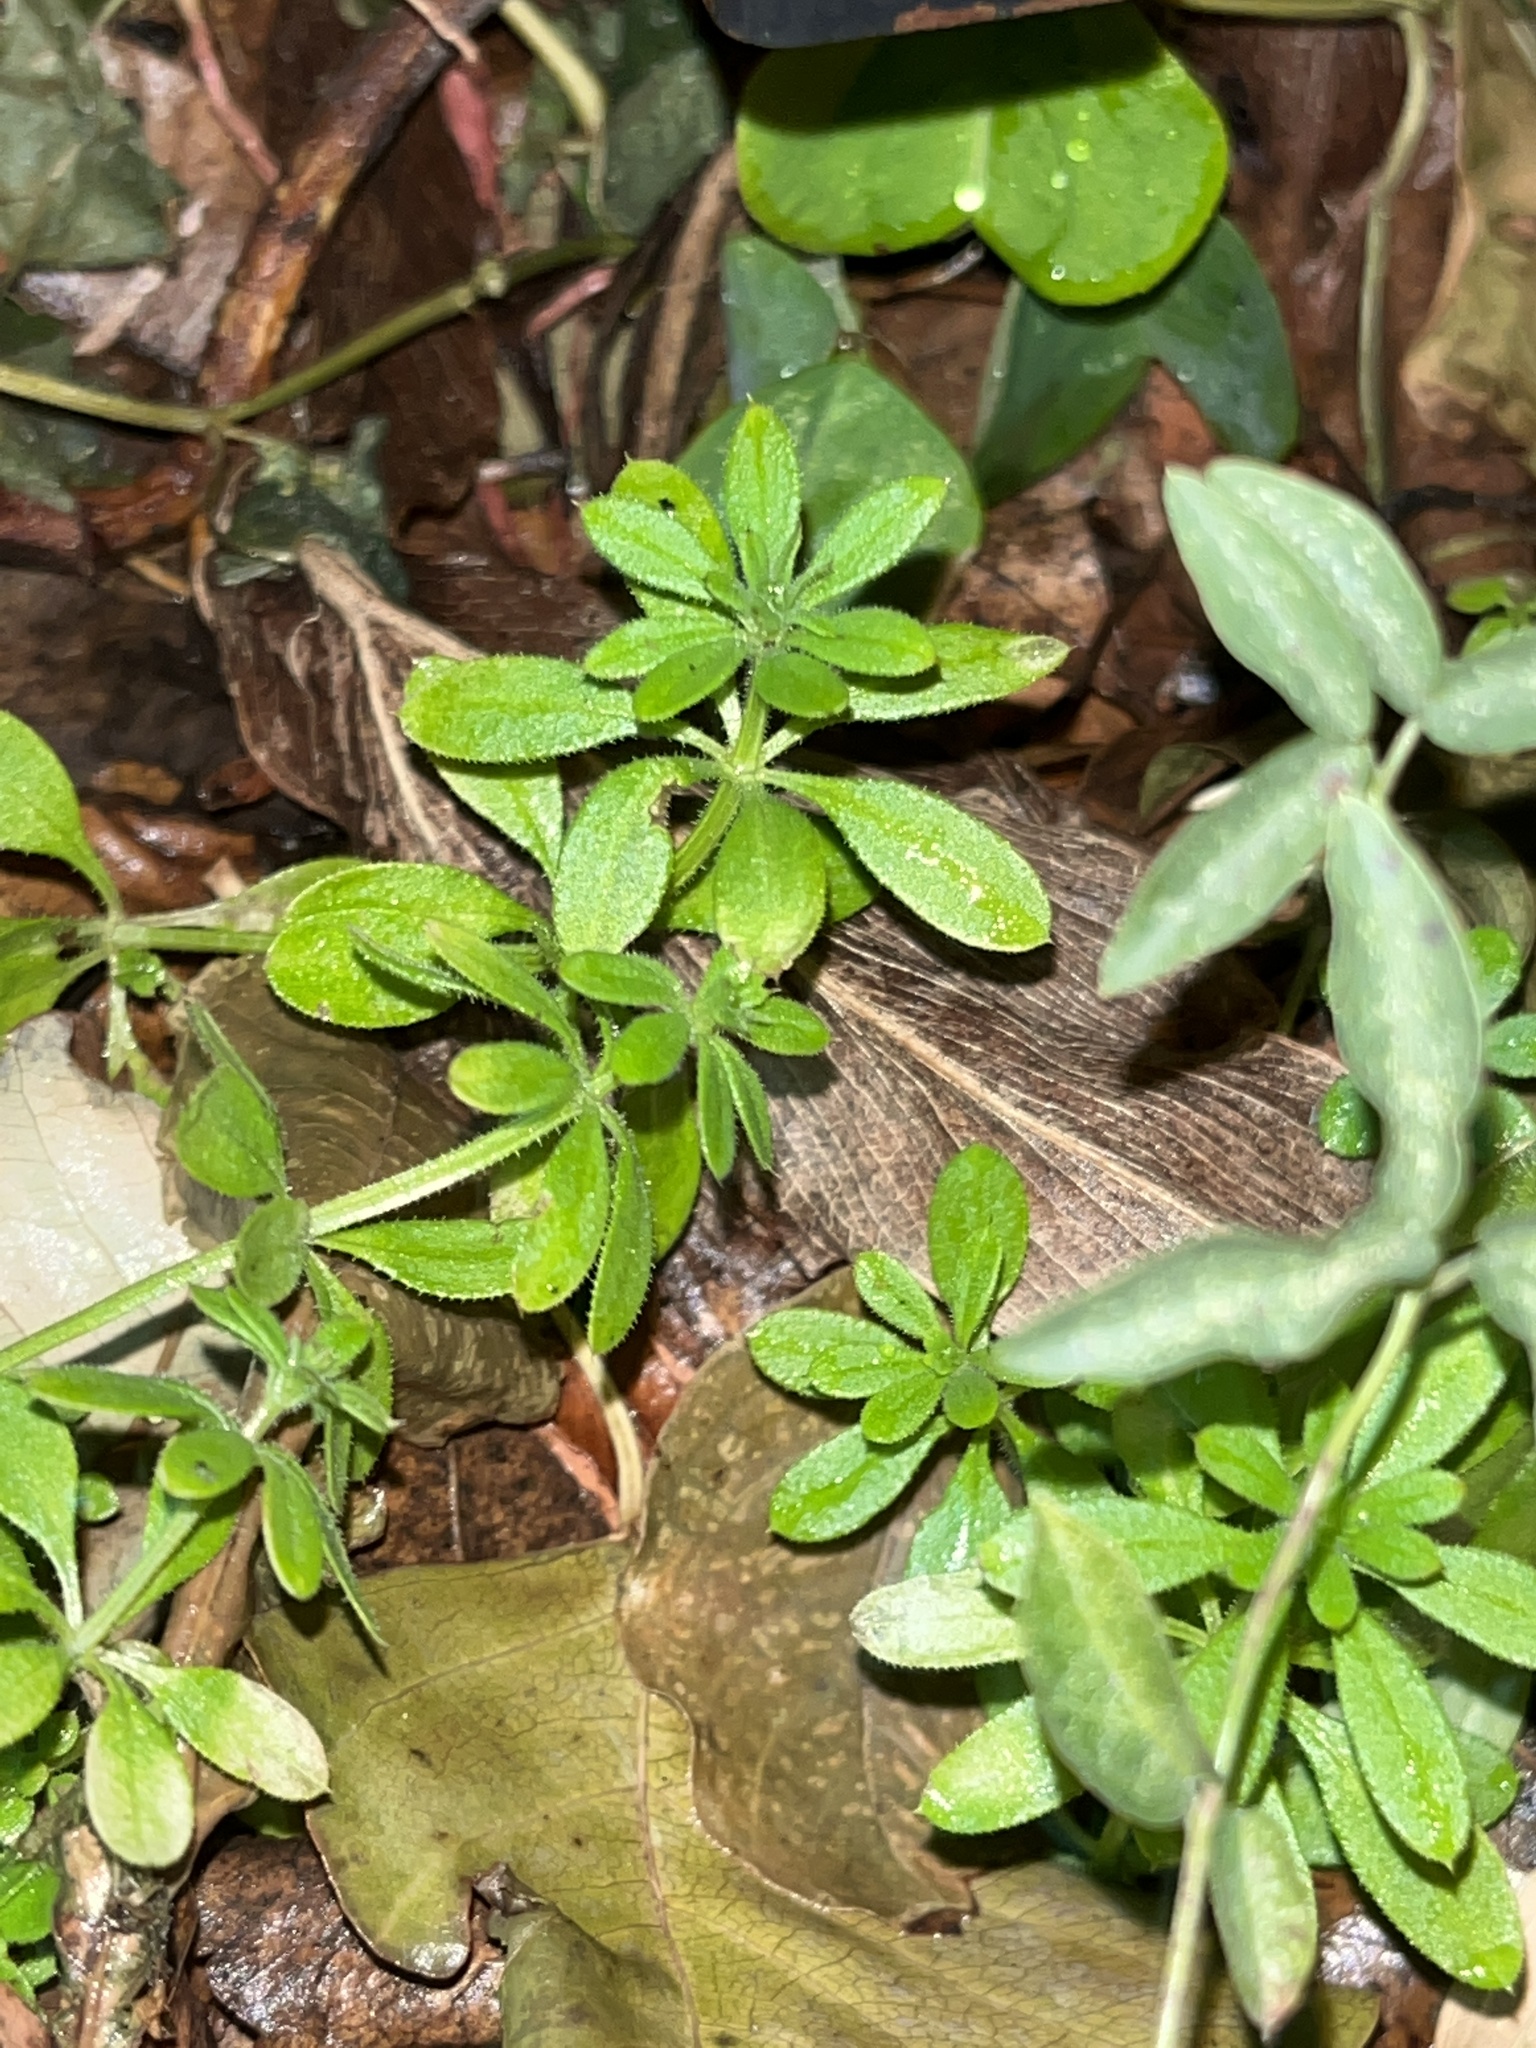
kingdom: Plantae
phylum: Tracheophyta
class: Magnoliopsida
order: Gentianales
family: Rubiaceae
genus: Galium
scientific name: Galium aparine
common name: Cleavers
